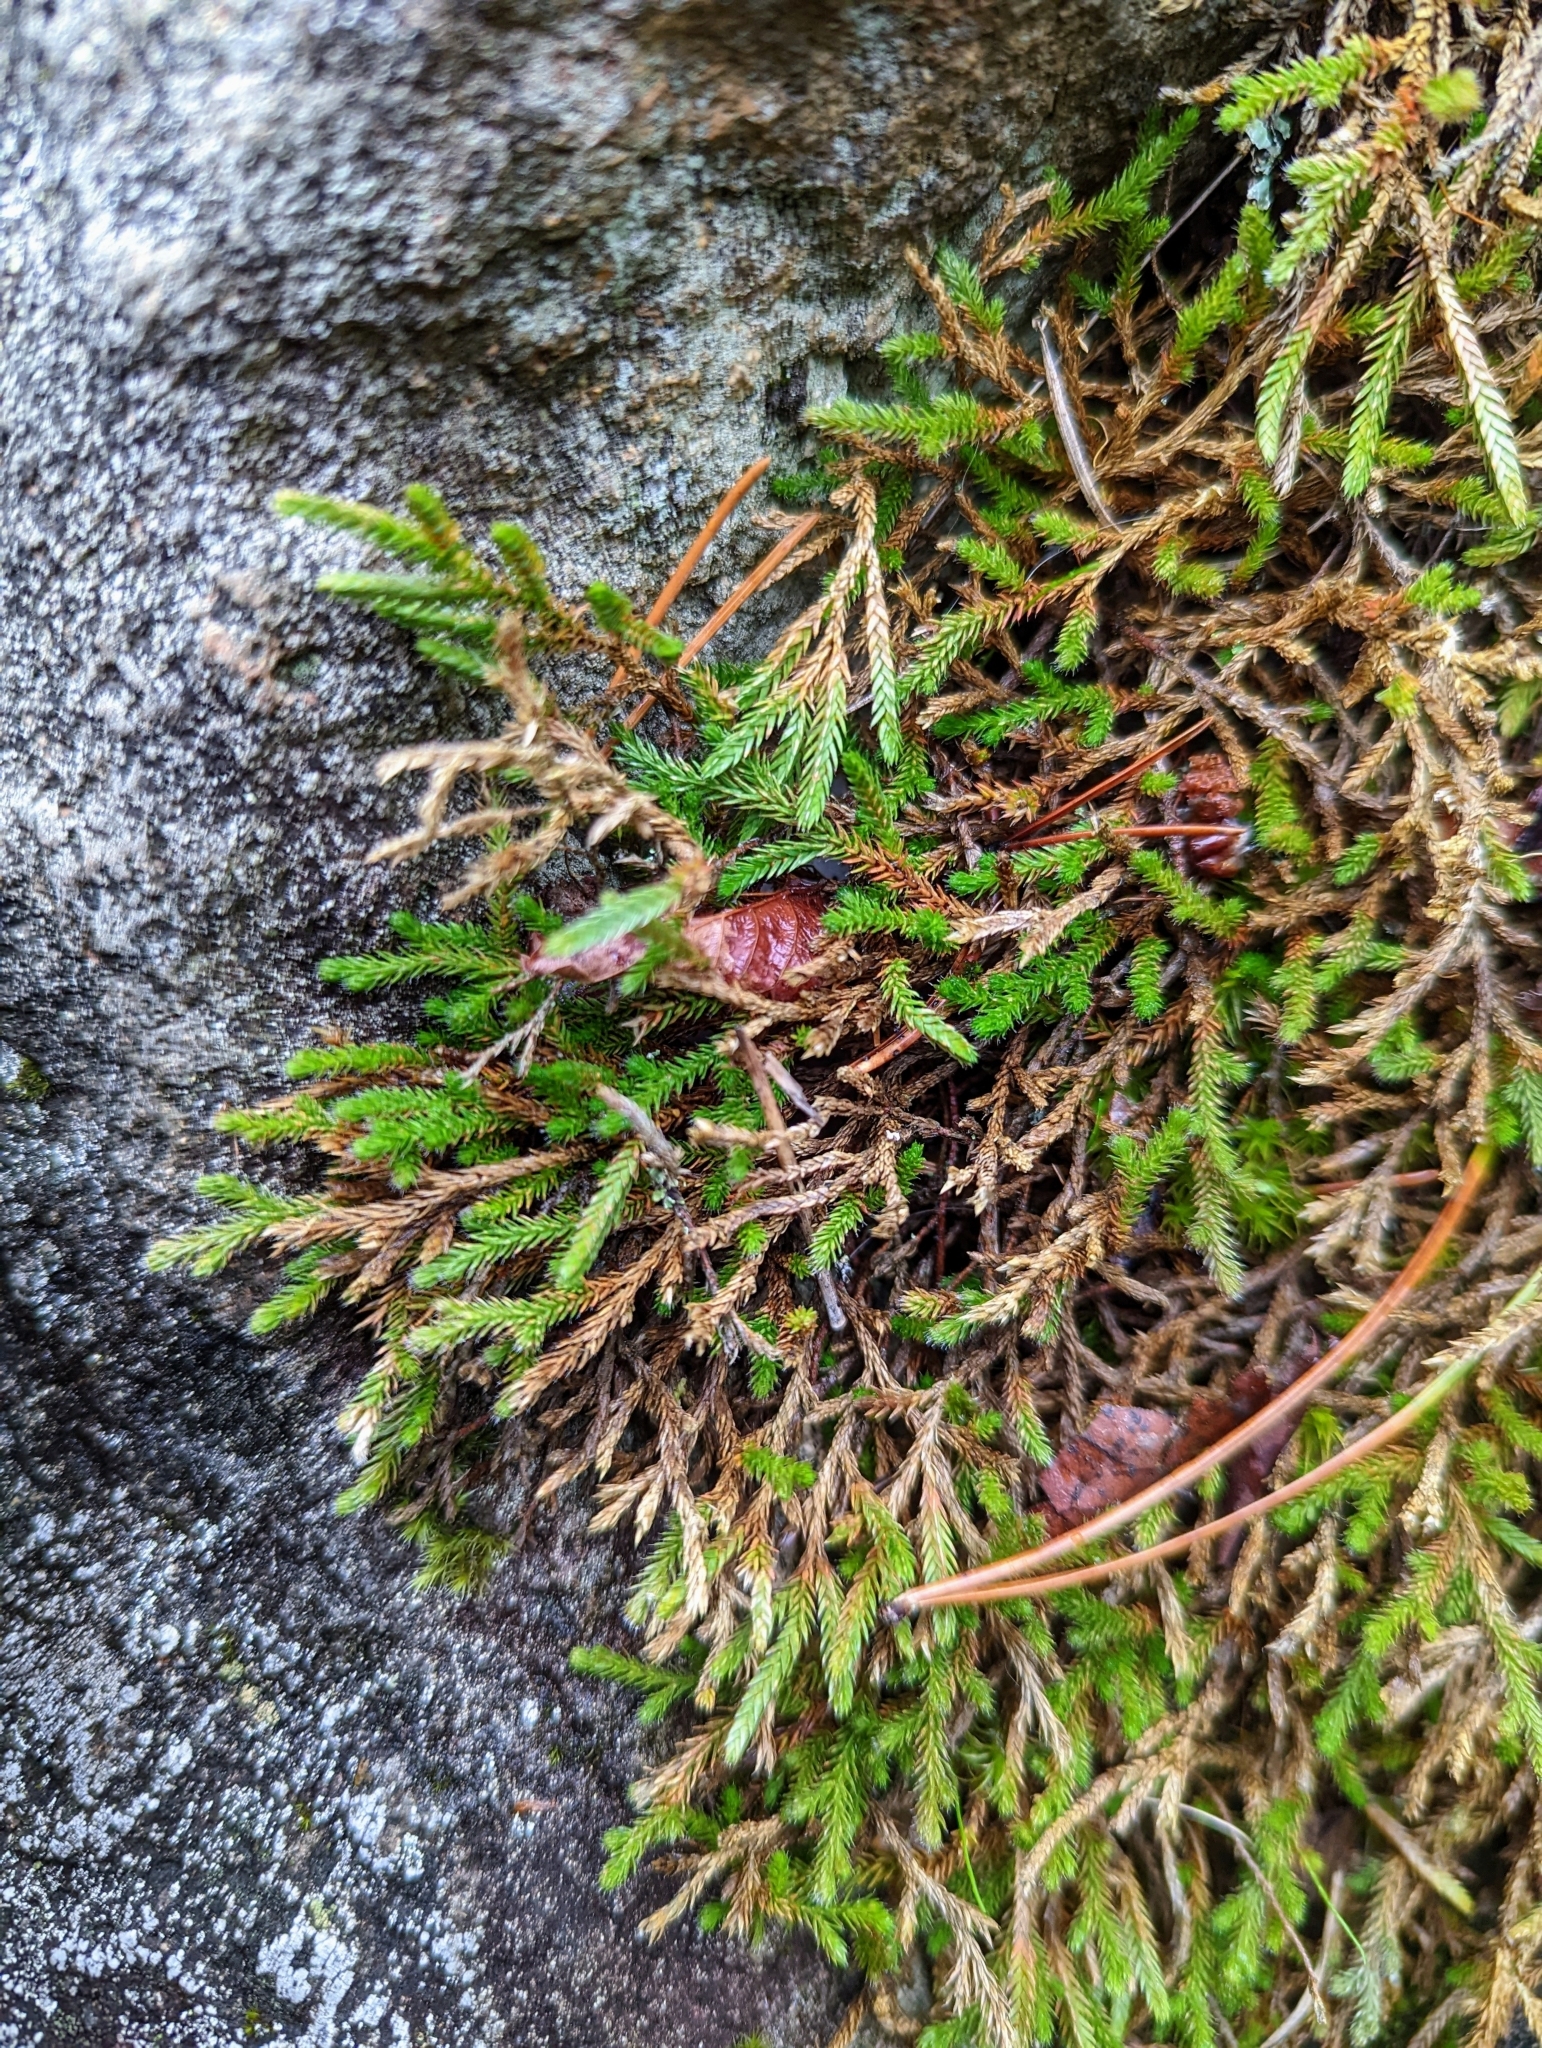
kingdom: Plantae
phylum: Tracheophyta
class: Lycopodiopsida
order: Selaginellales
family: Selaginellaceae
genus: Selaginella
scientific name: Selaginella wallacei
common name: Wallace's selaginella
